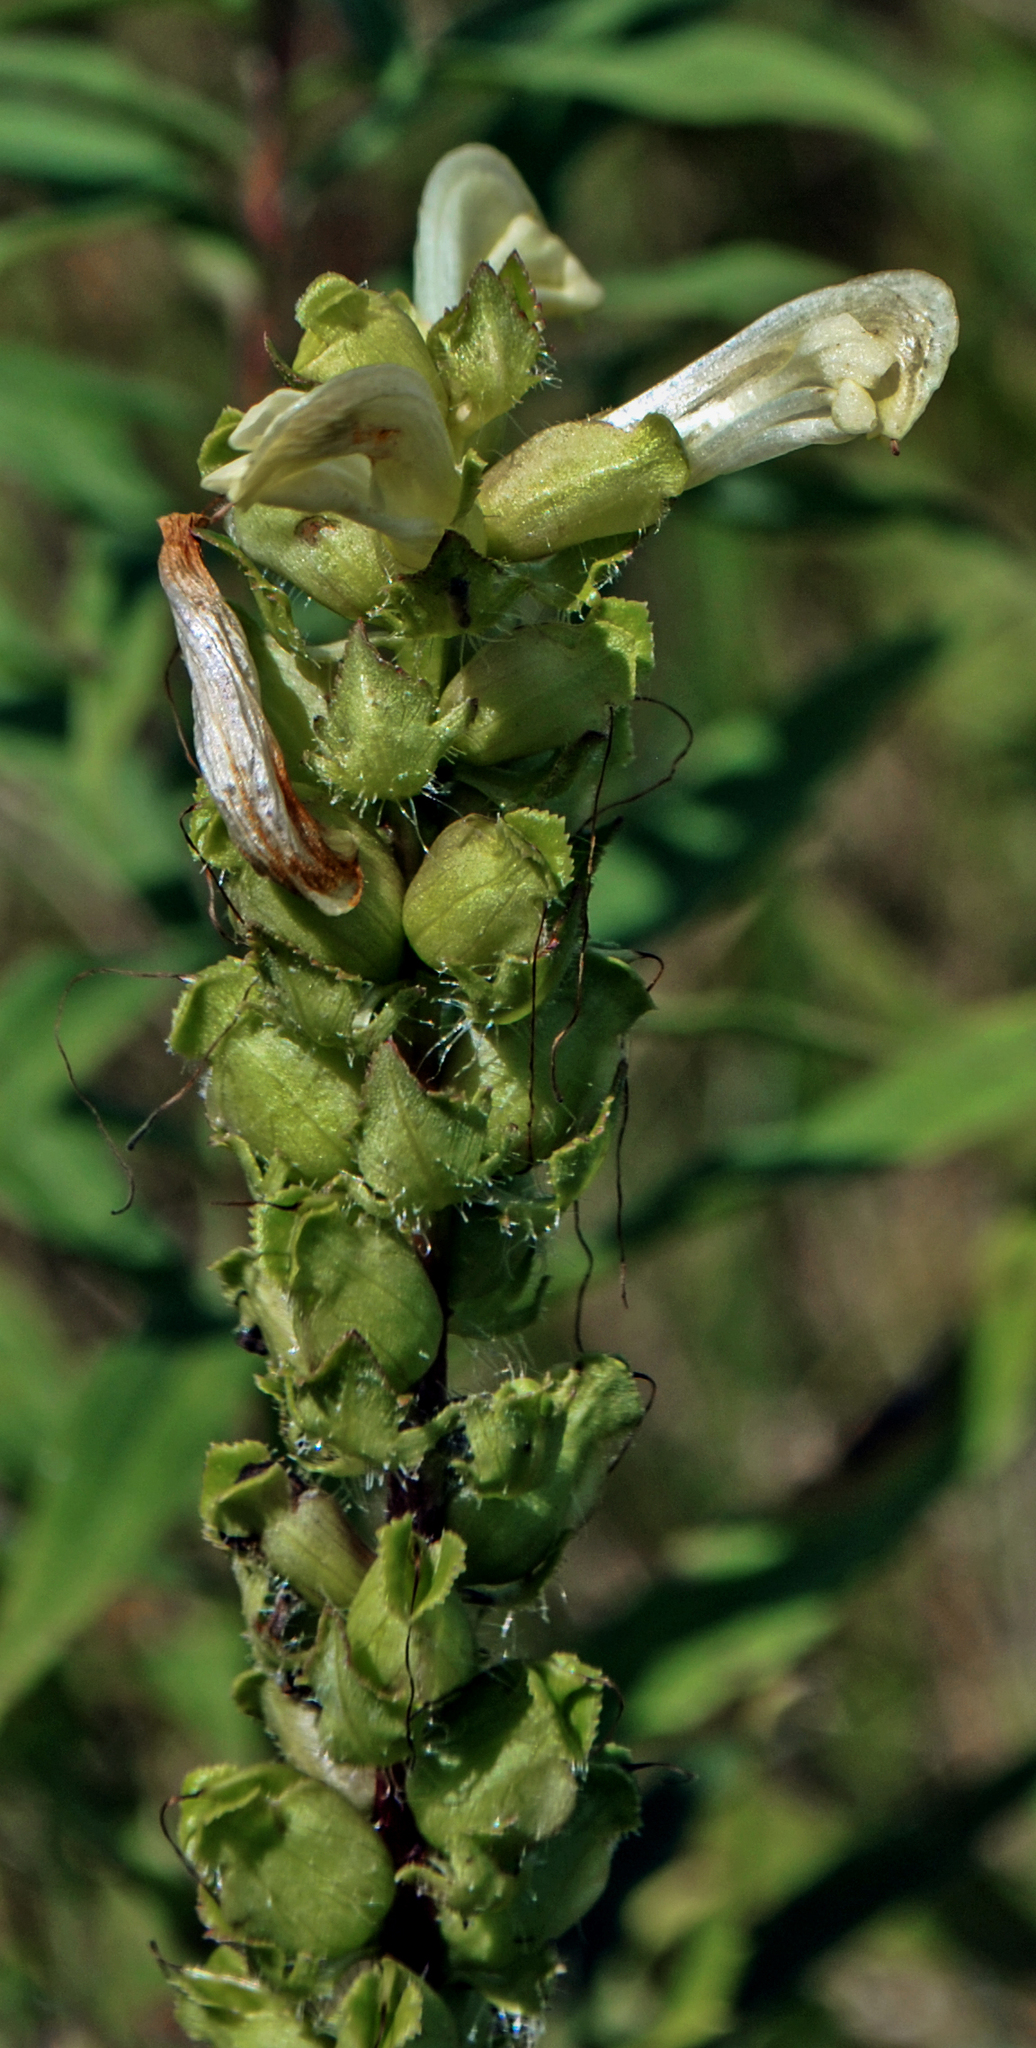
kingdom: Plantae
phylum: Tracheophyta
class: Magnoliopsida
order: Lamiales
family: Orobanchaceae
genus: Pedicularis
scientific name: Pedicularis lanceolata
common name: Swamp lousewort
